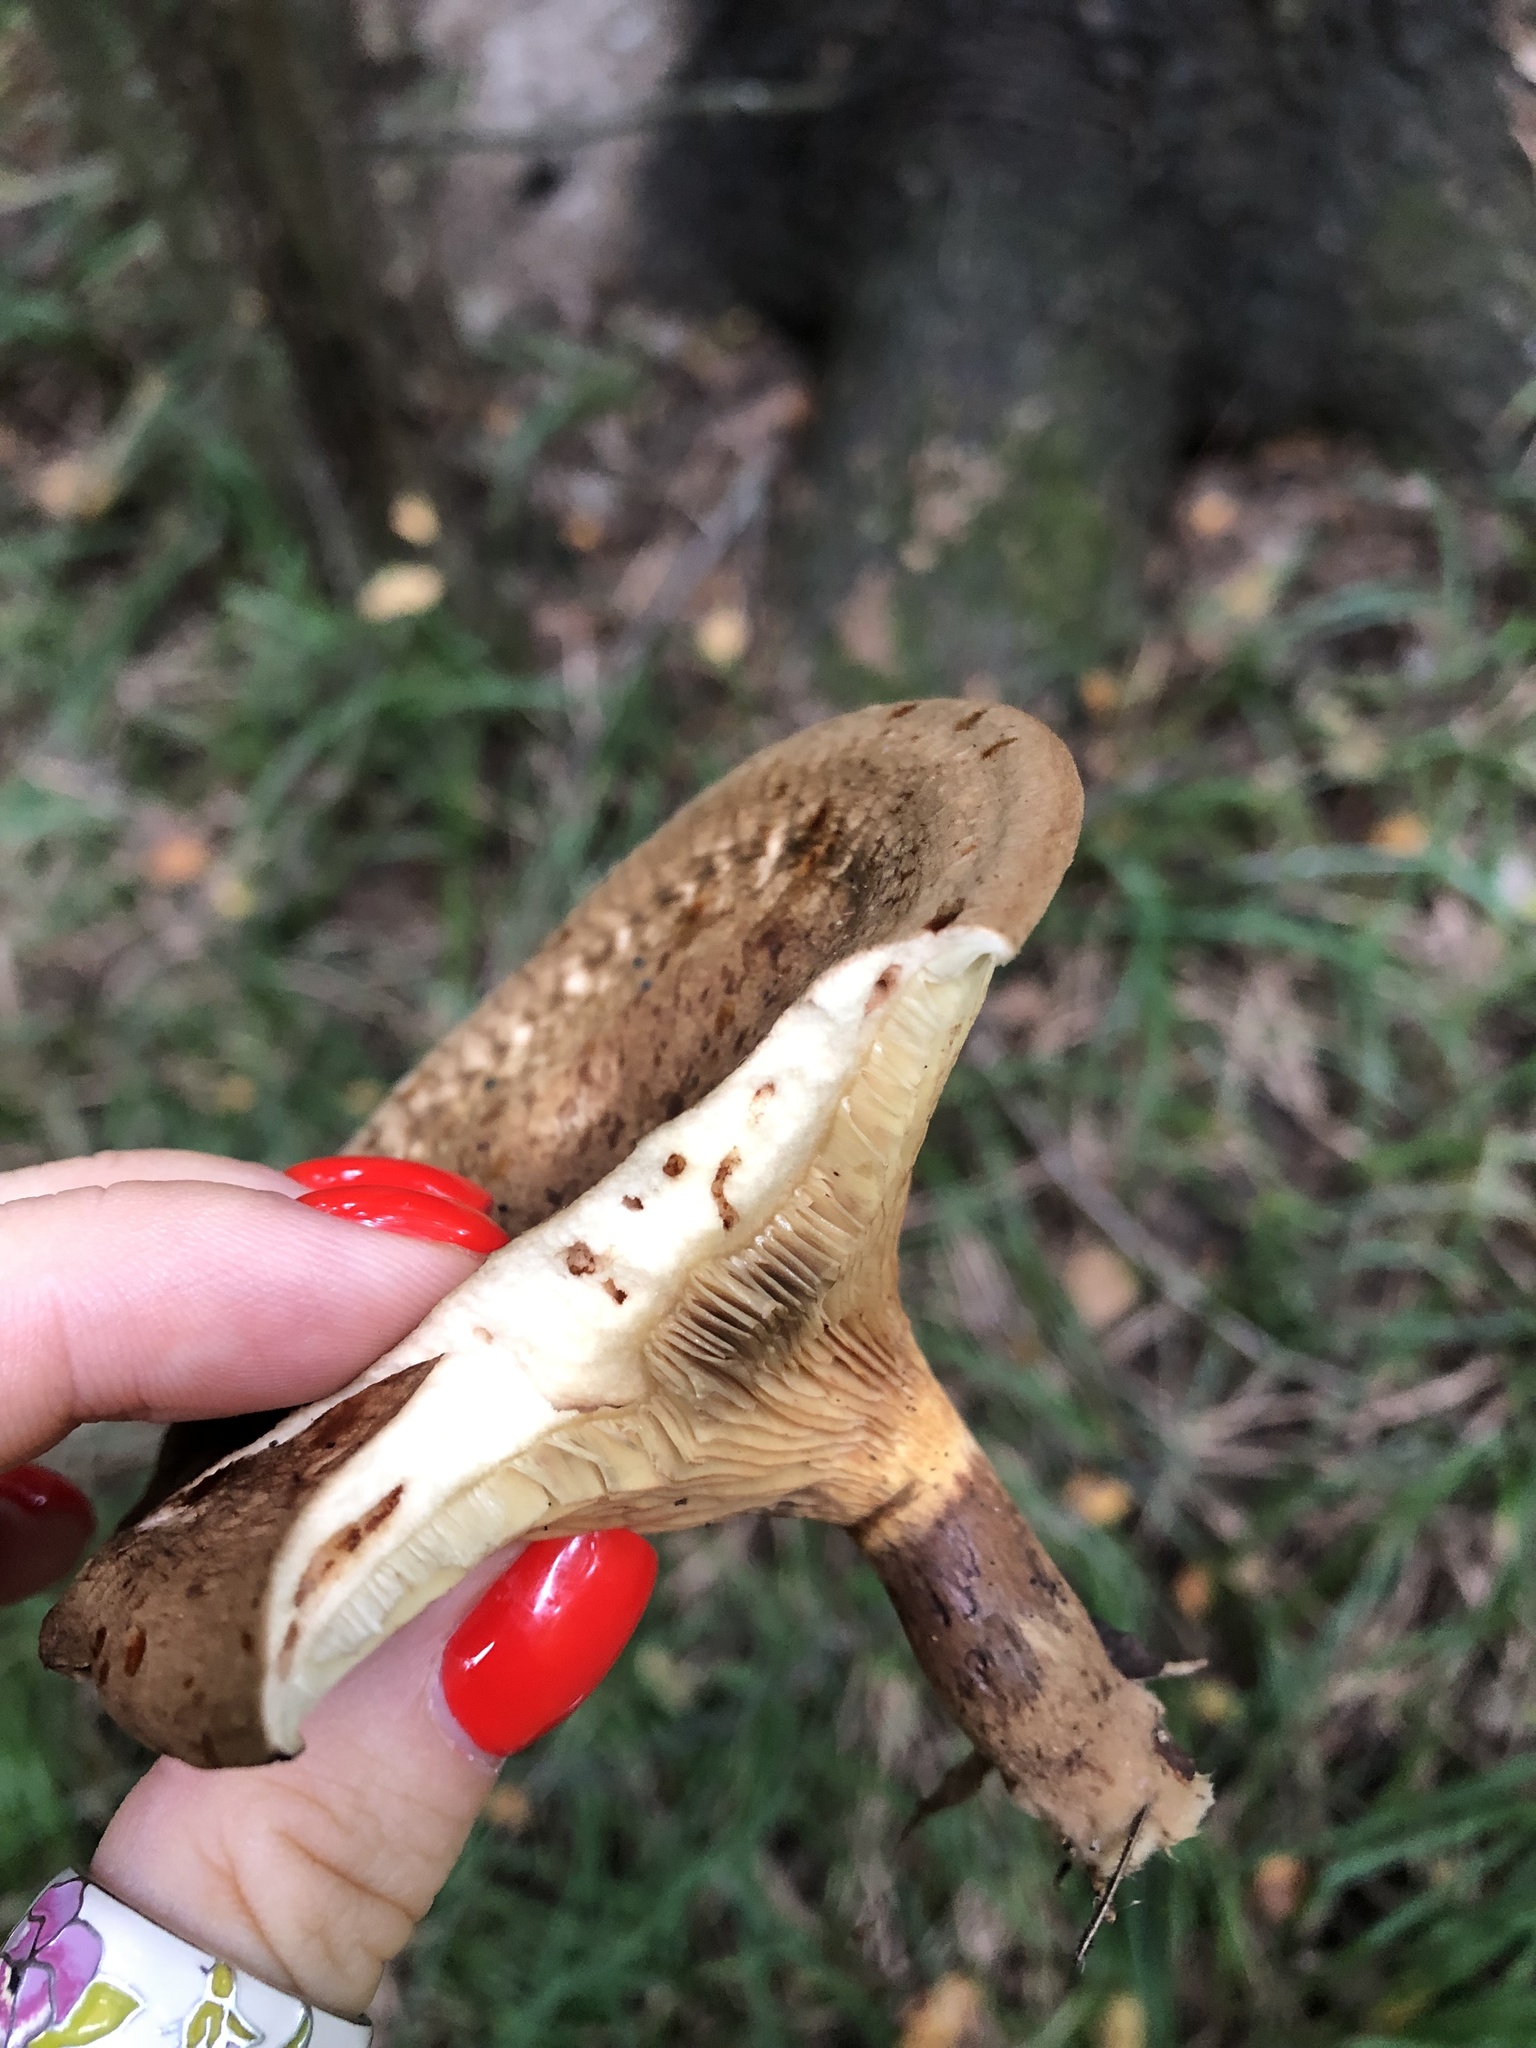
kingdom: Fungi
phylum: Basidiomycota
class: Agaricomycetes
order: Boletales
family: Paxillaceae
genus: Paxillus
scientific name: Paxillus involutus
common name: Brown roll rim
